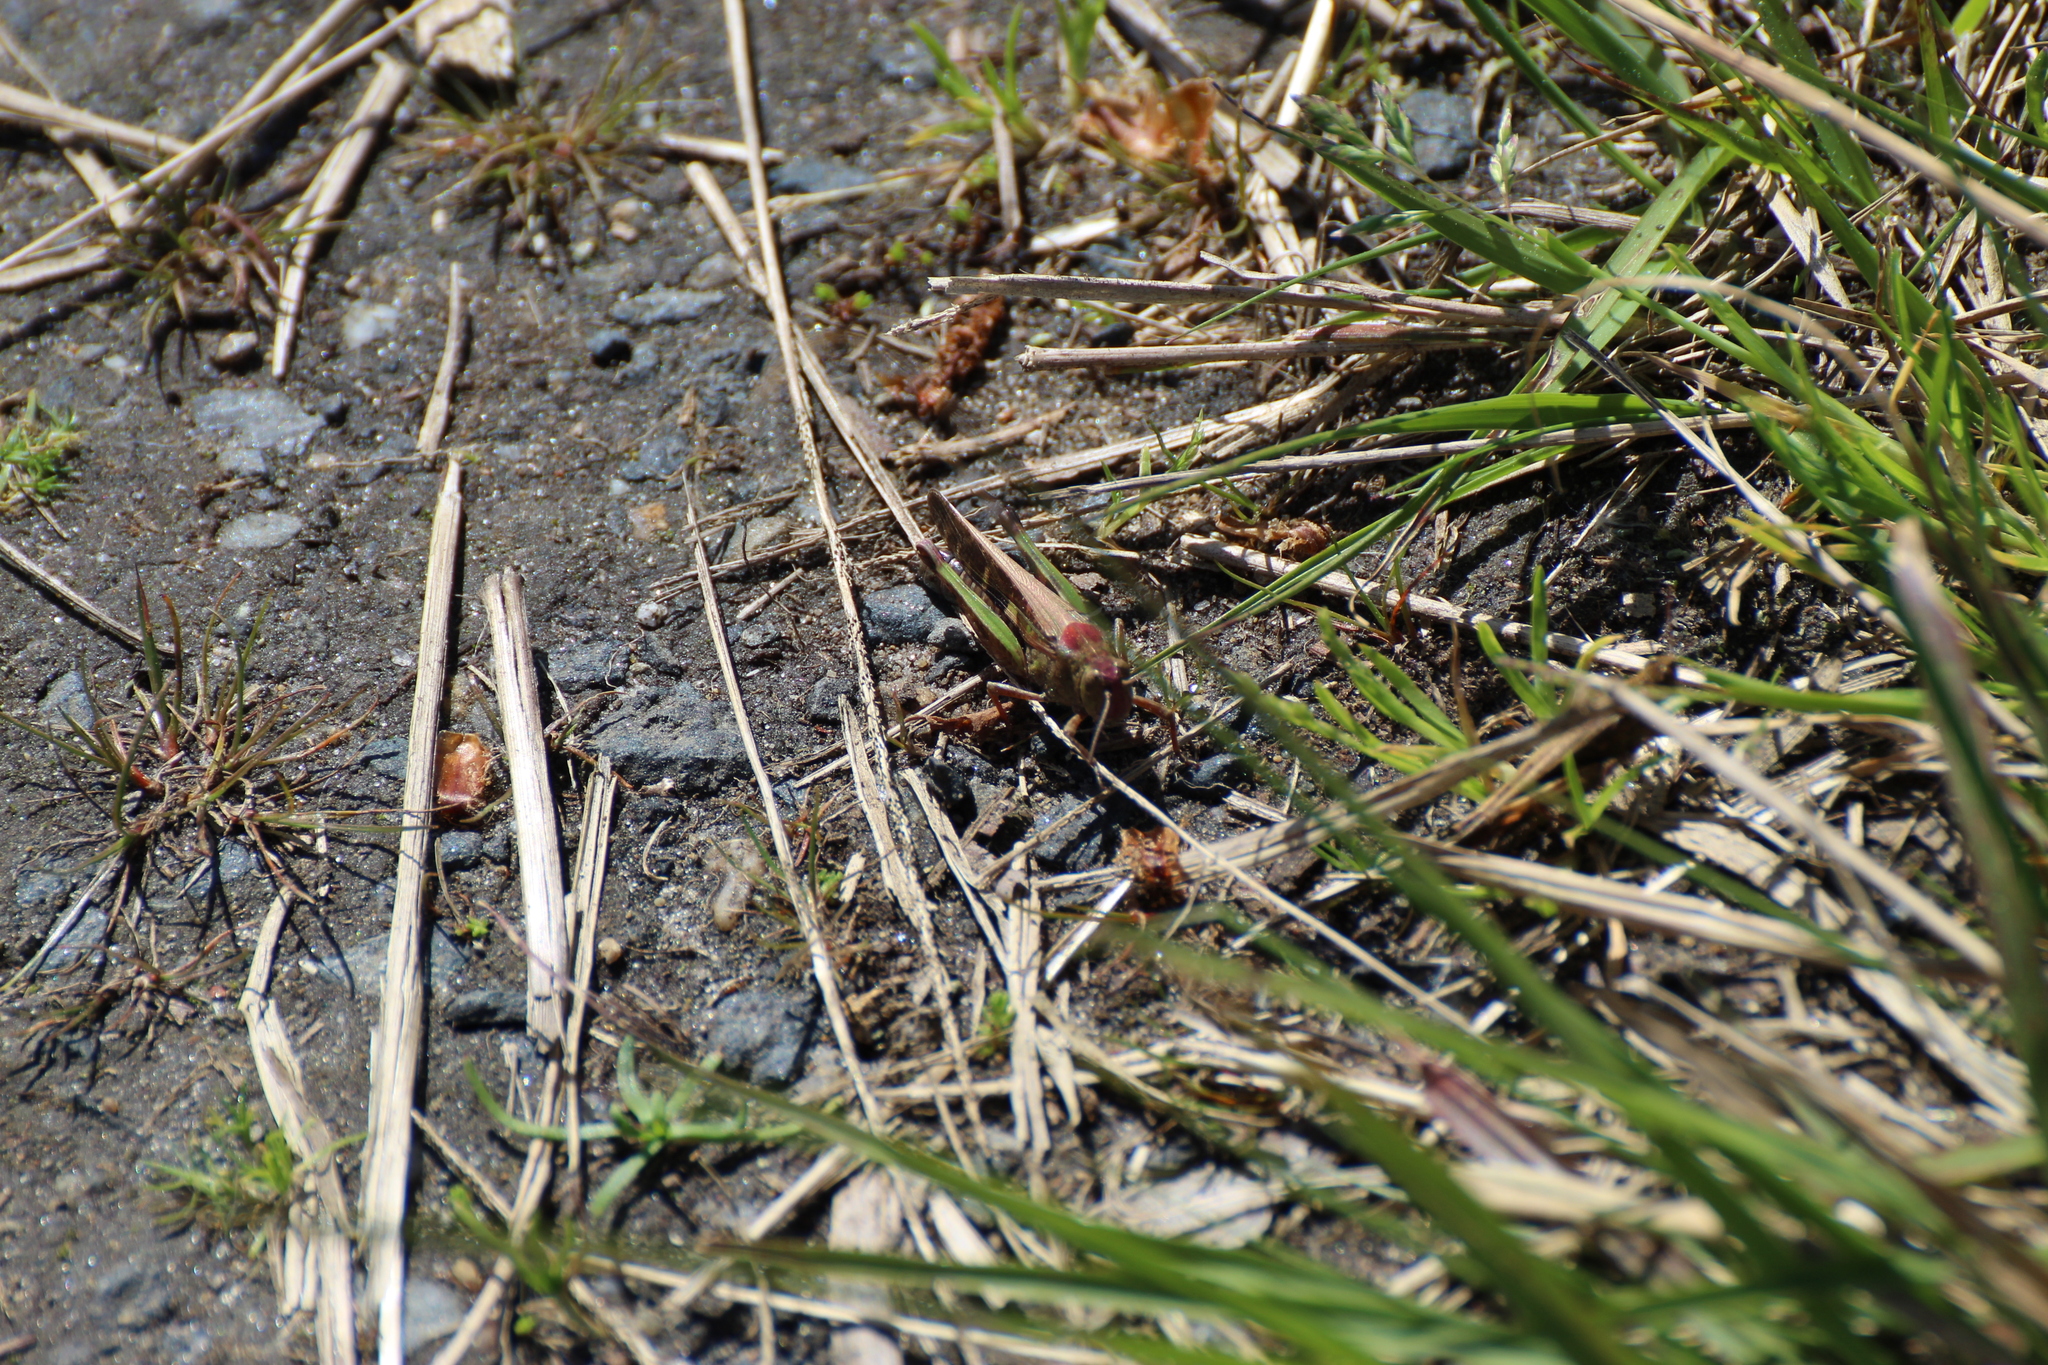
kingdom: Animalia
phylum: Arthropoda
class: Insecta
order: Orthoptera
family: Acrididae
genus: Aiolopus
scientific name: Aiolopus strepens
